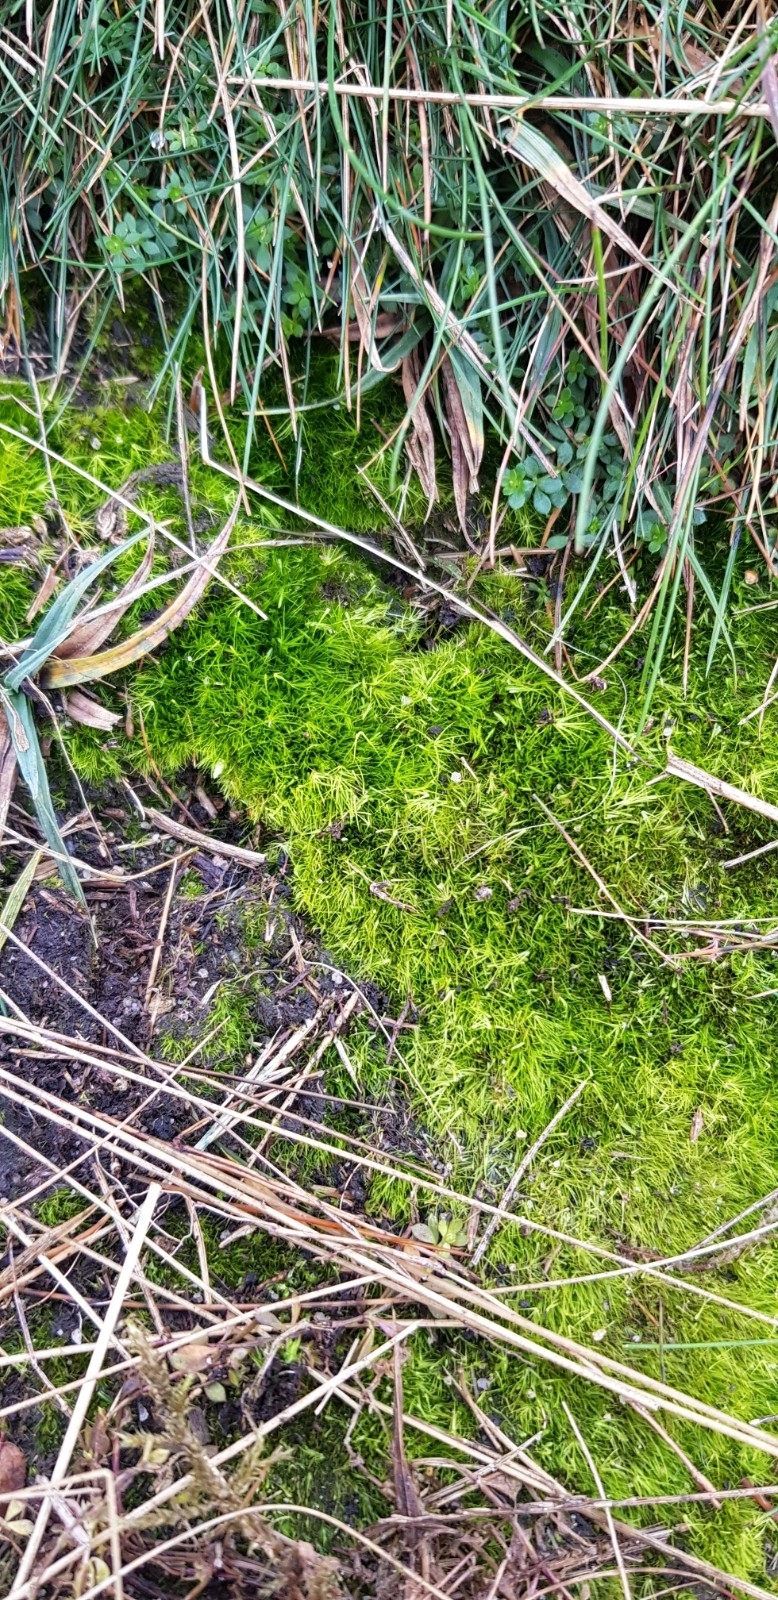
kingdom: Plantae
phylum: Bryophyta
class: Bryopsida
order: Dicranales
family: Leucobryaceae
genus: Campylopus
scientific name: Campylopus pyriformis
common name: Dwarf swan-neck moss
